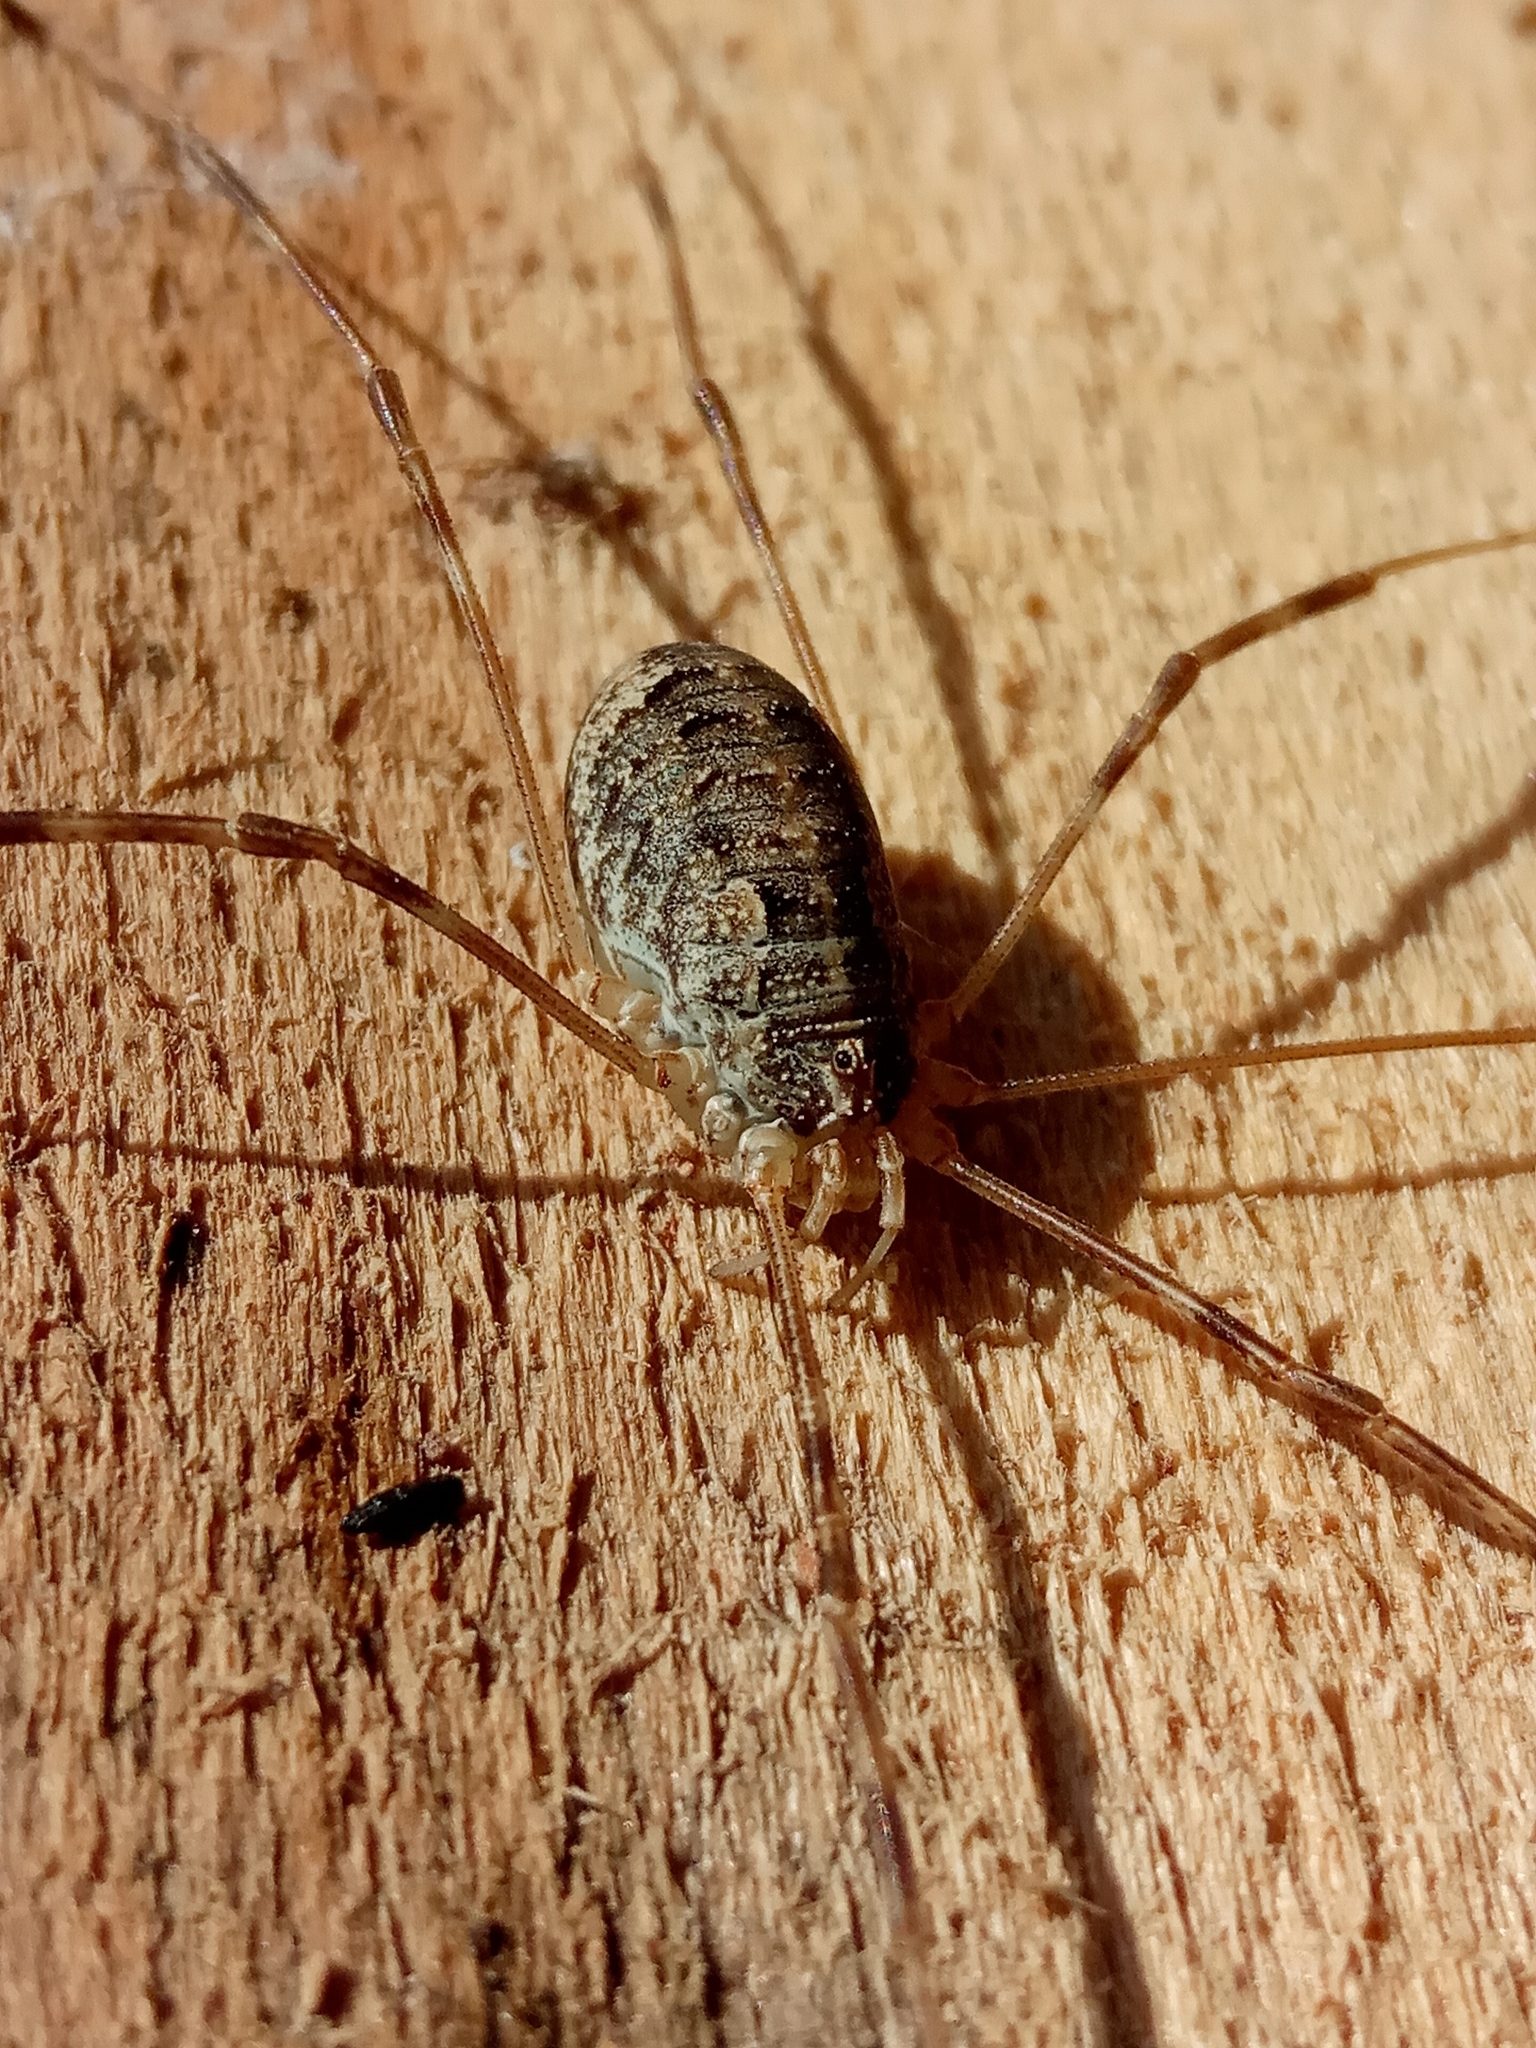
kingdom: Animalia
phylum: Arthropoda
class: Arachnida
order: Opiliones
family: Phalangiidae
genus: Opilio
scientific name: Opilio
